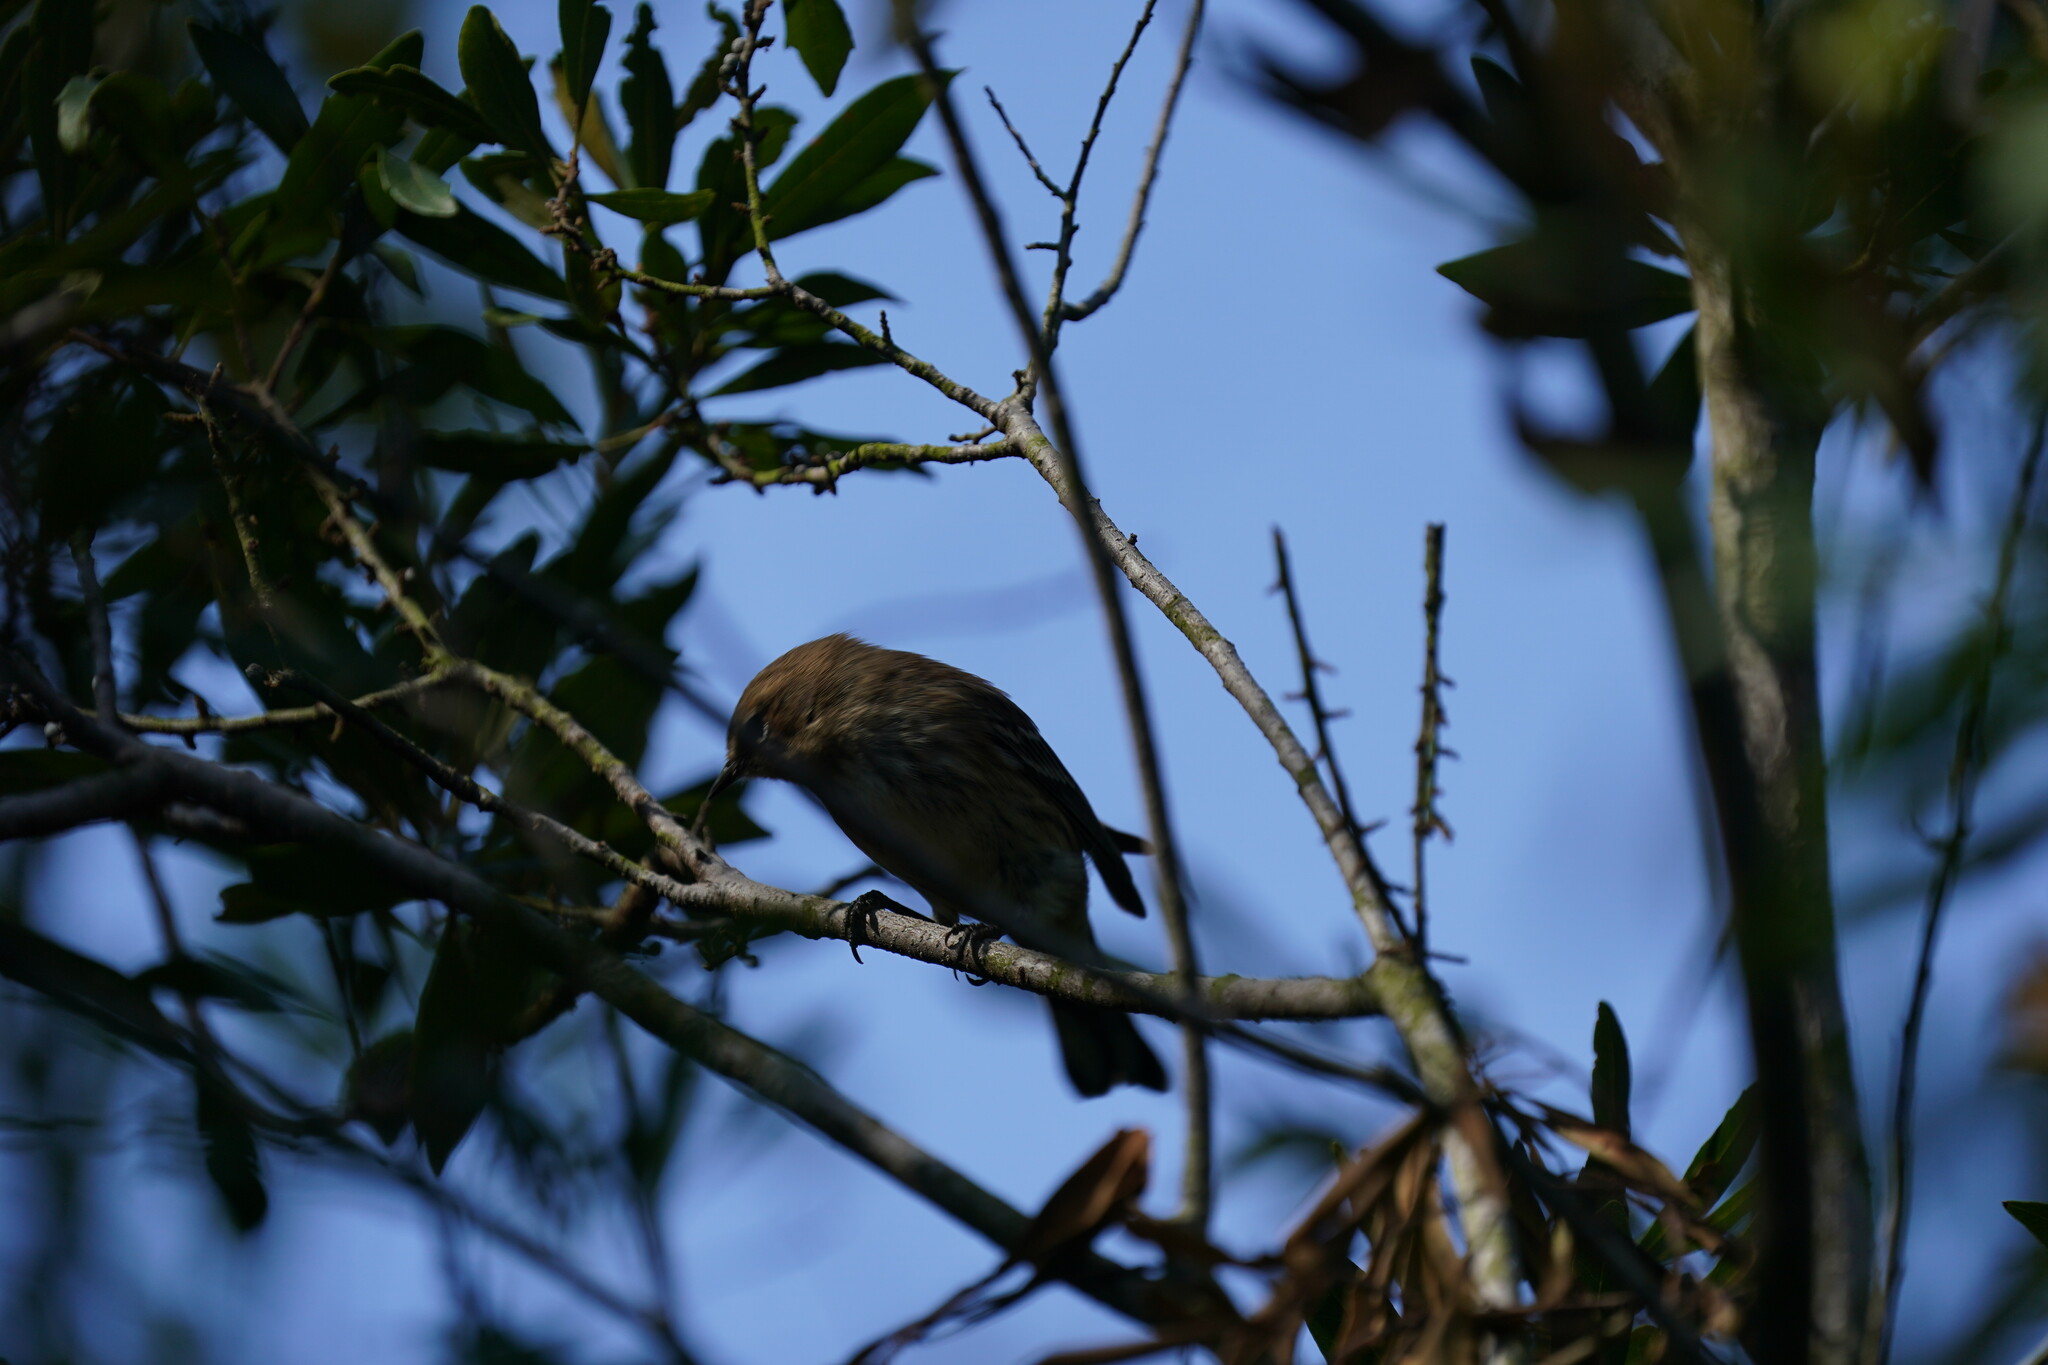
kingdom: Animalia
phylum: Chordata
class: Aves
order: Passeriformes
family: Parulidae
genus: Setophaga
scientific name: Setophaga coronata
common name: Myrtle warbler
